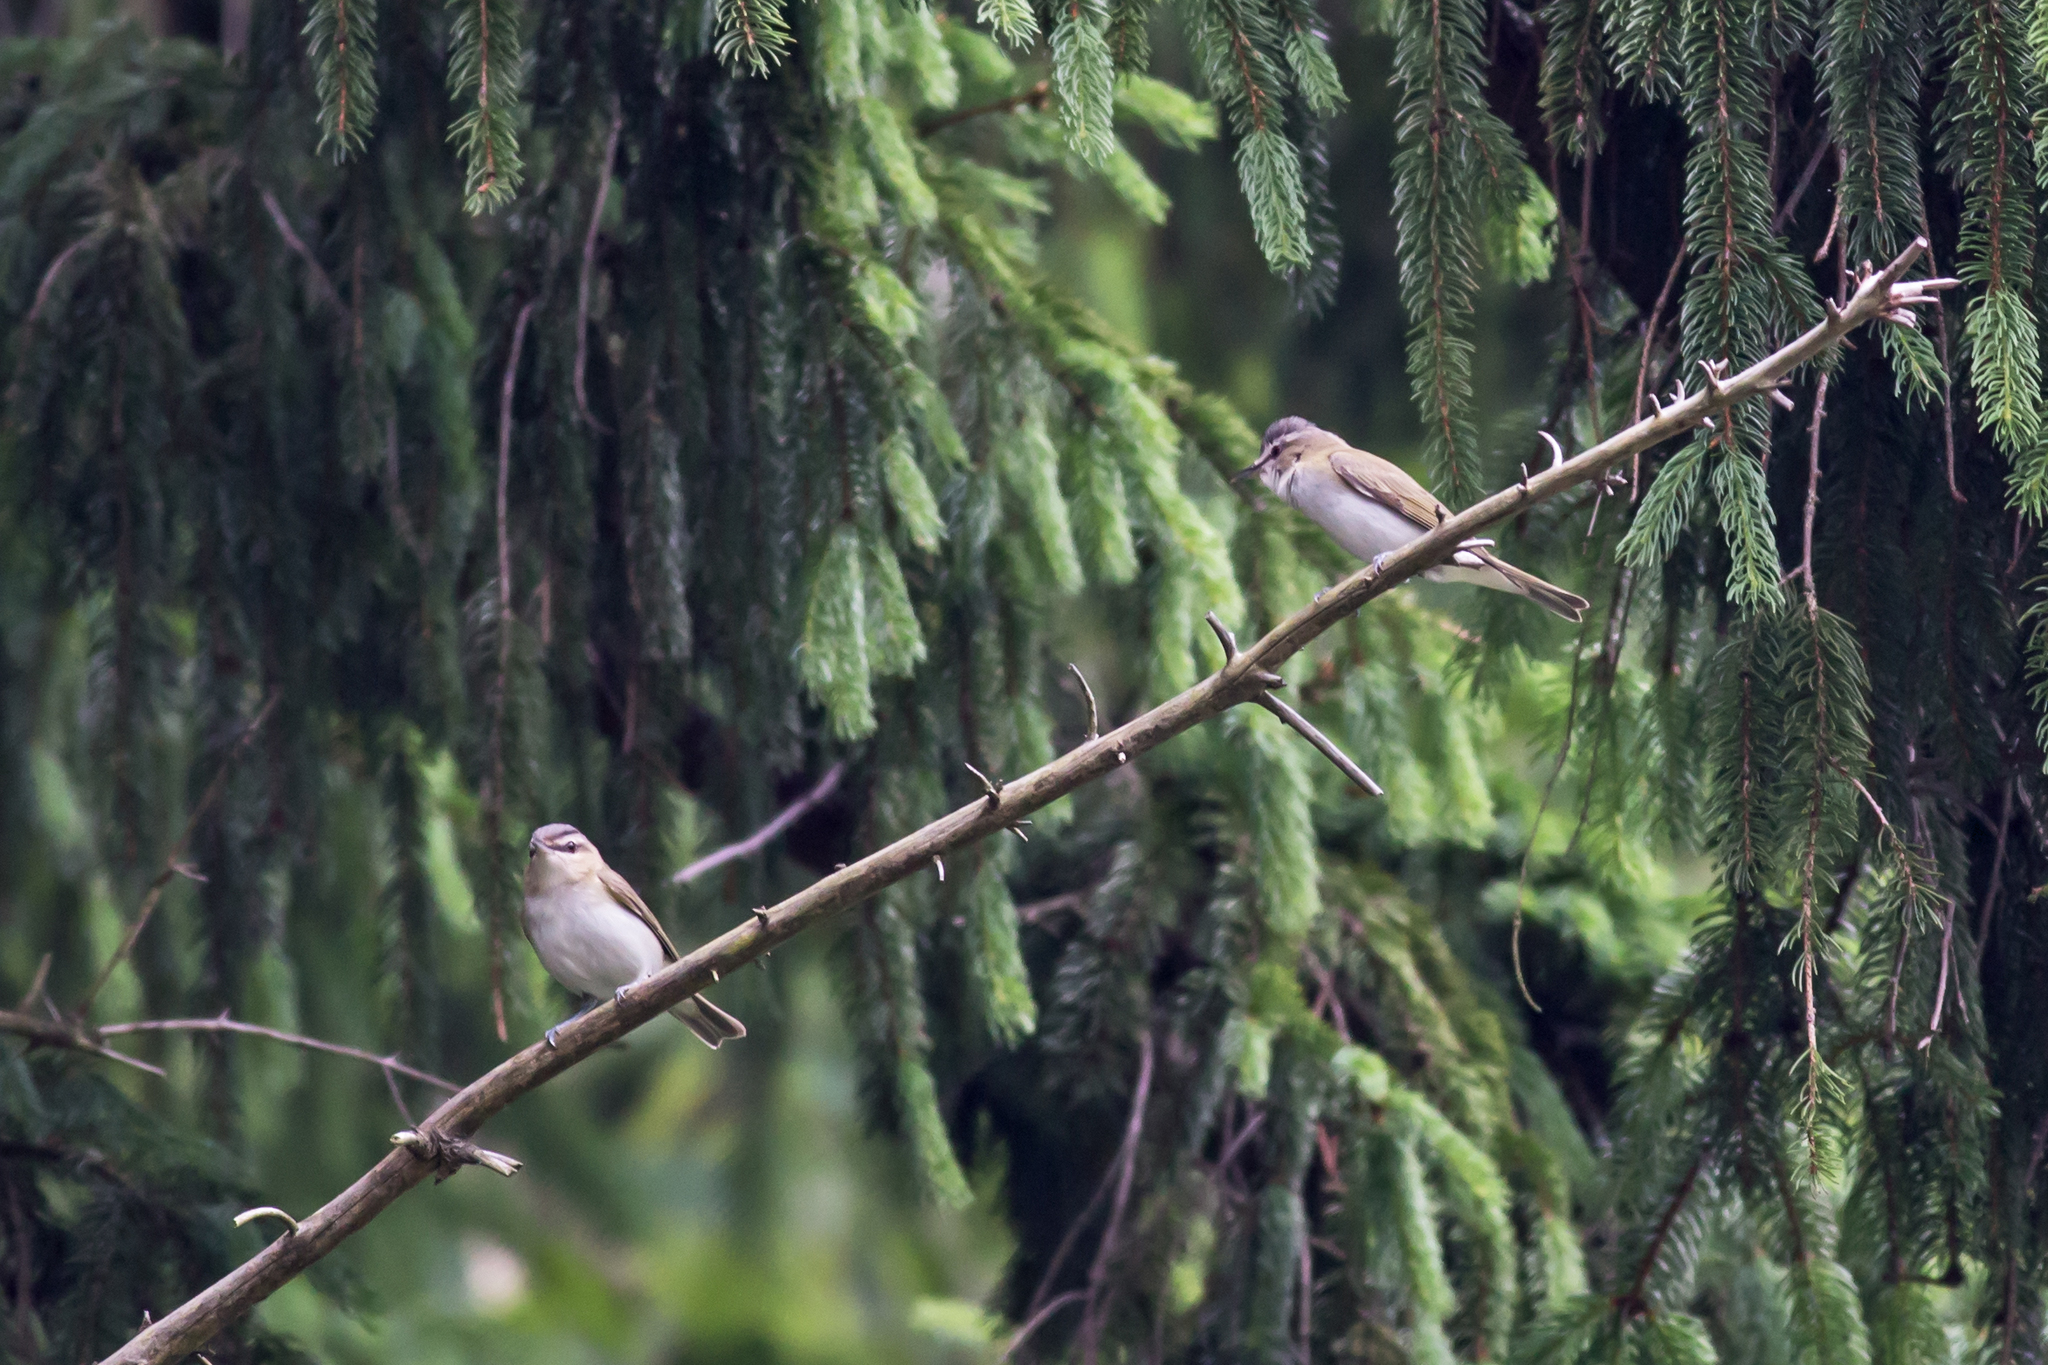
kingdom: Animalia
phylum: Chordata
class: Aves
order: Passeriformes
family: Vireonidae
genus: Vireo
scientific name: Vireo olivaceus
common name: Red-eyed vireo
